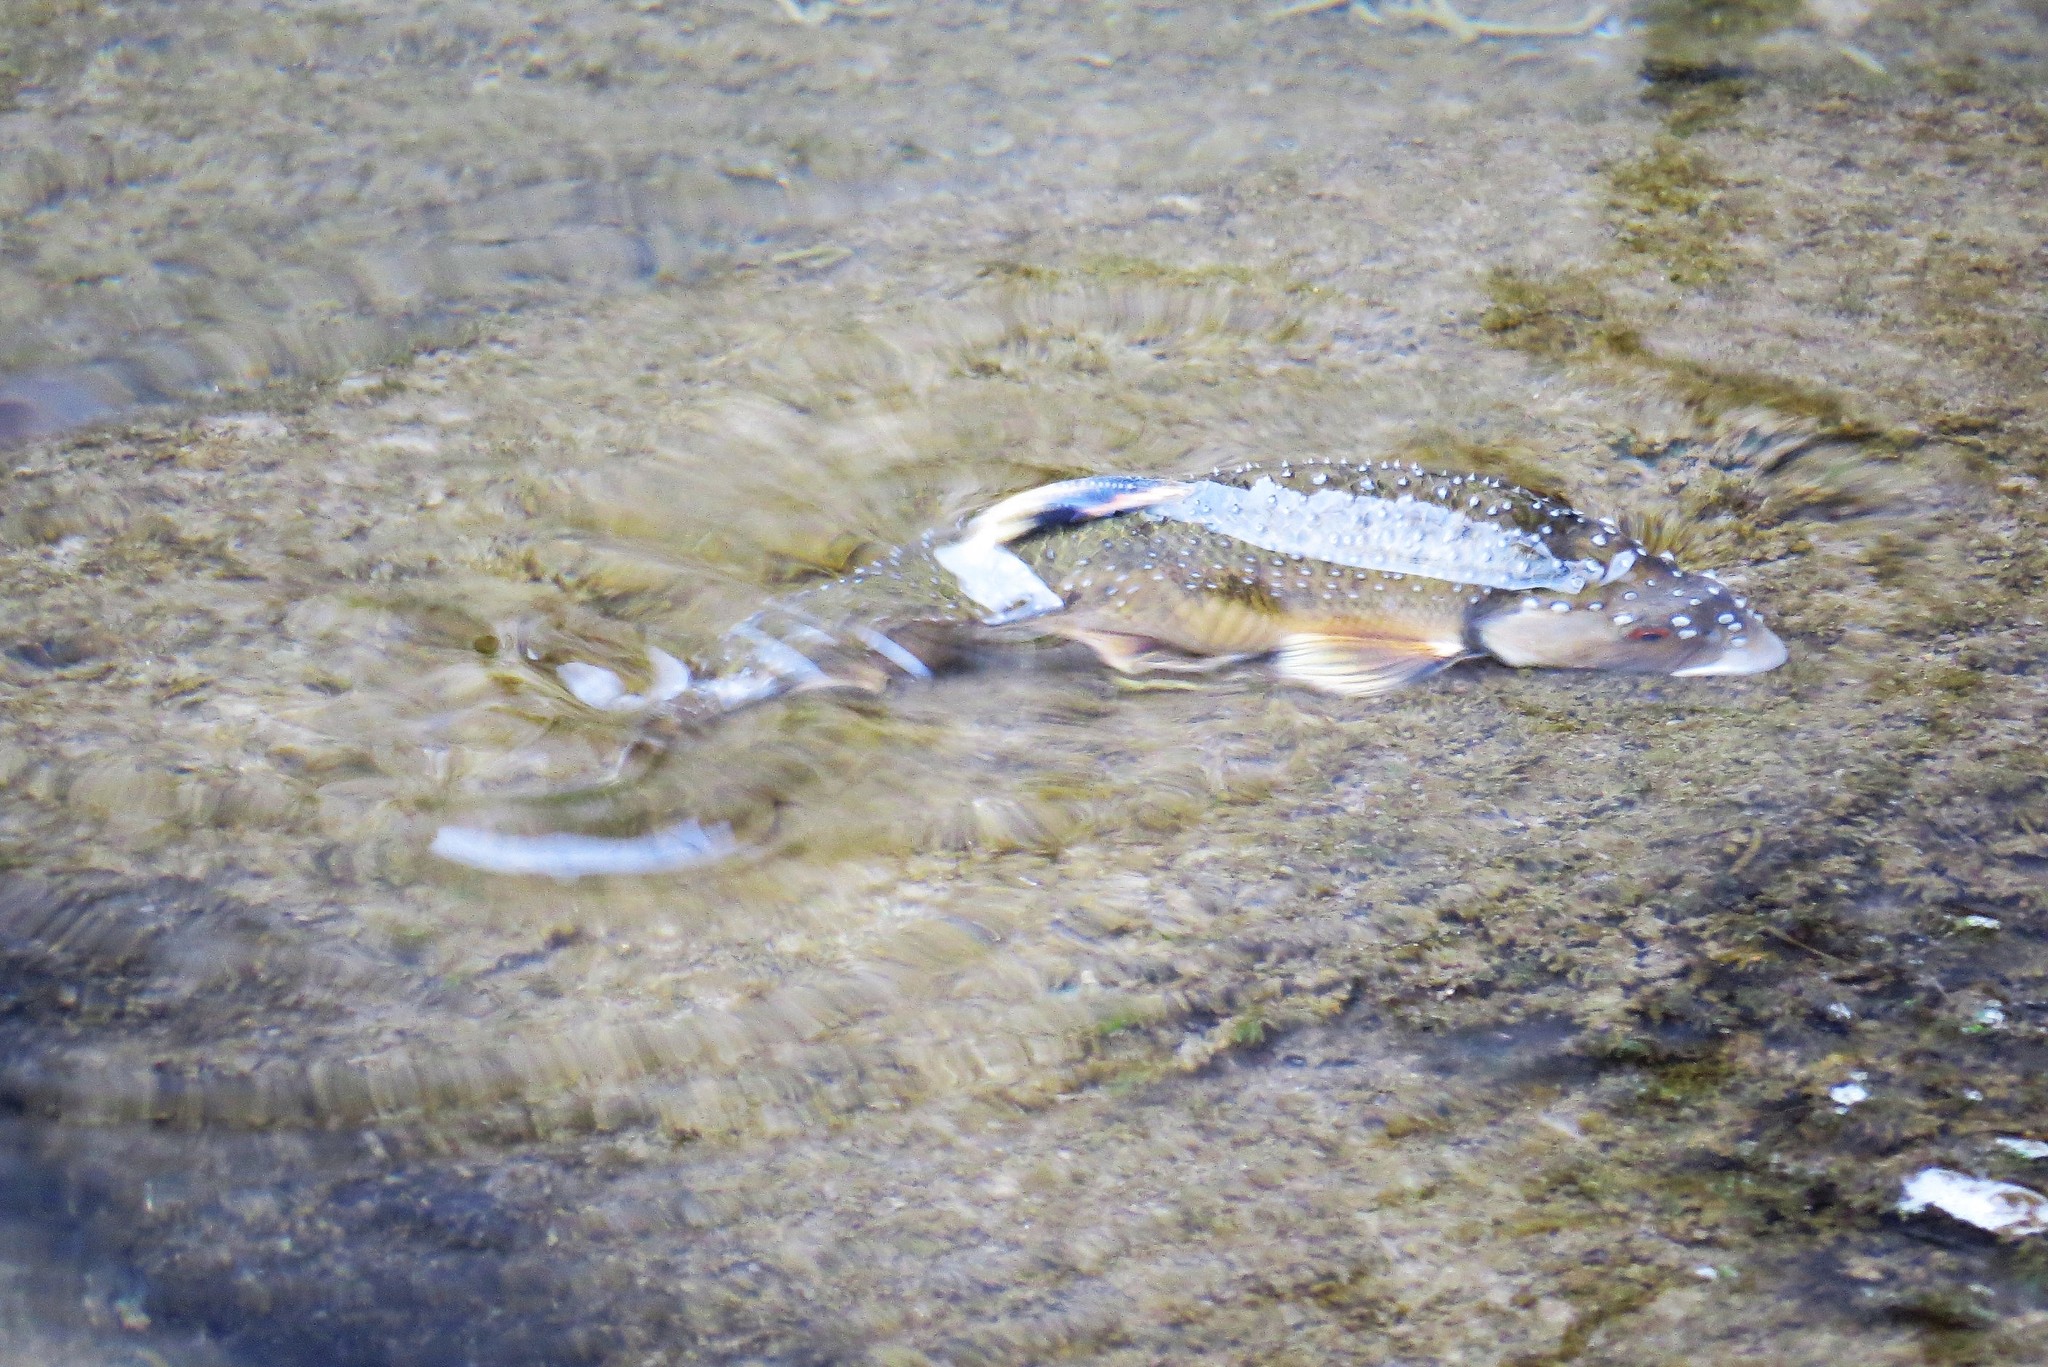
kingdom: Animalia
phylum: Chordata
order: Cypriniformes
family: Cyprinidae
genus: Campostoma
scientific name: Campostoma anomalum
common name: Central stoneroller
